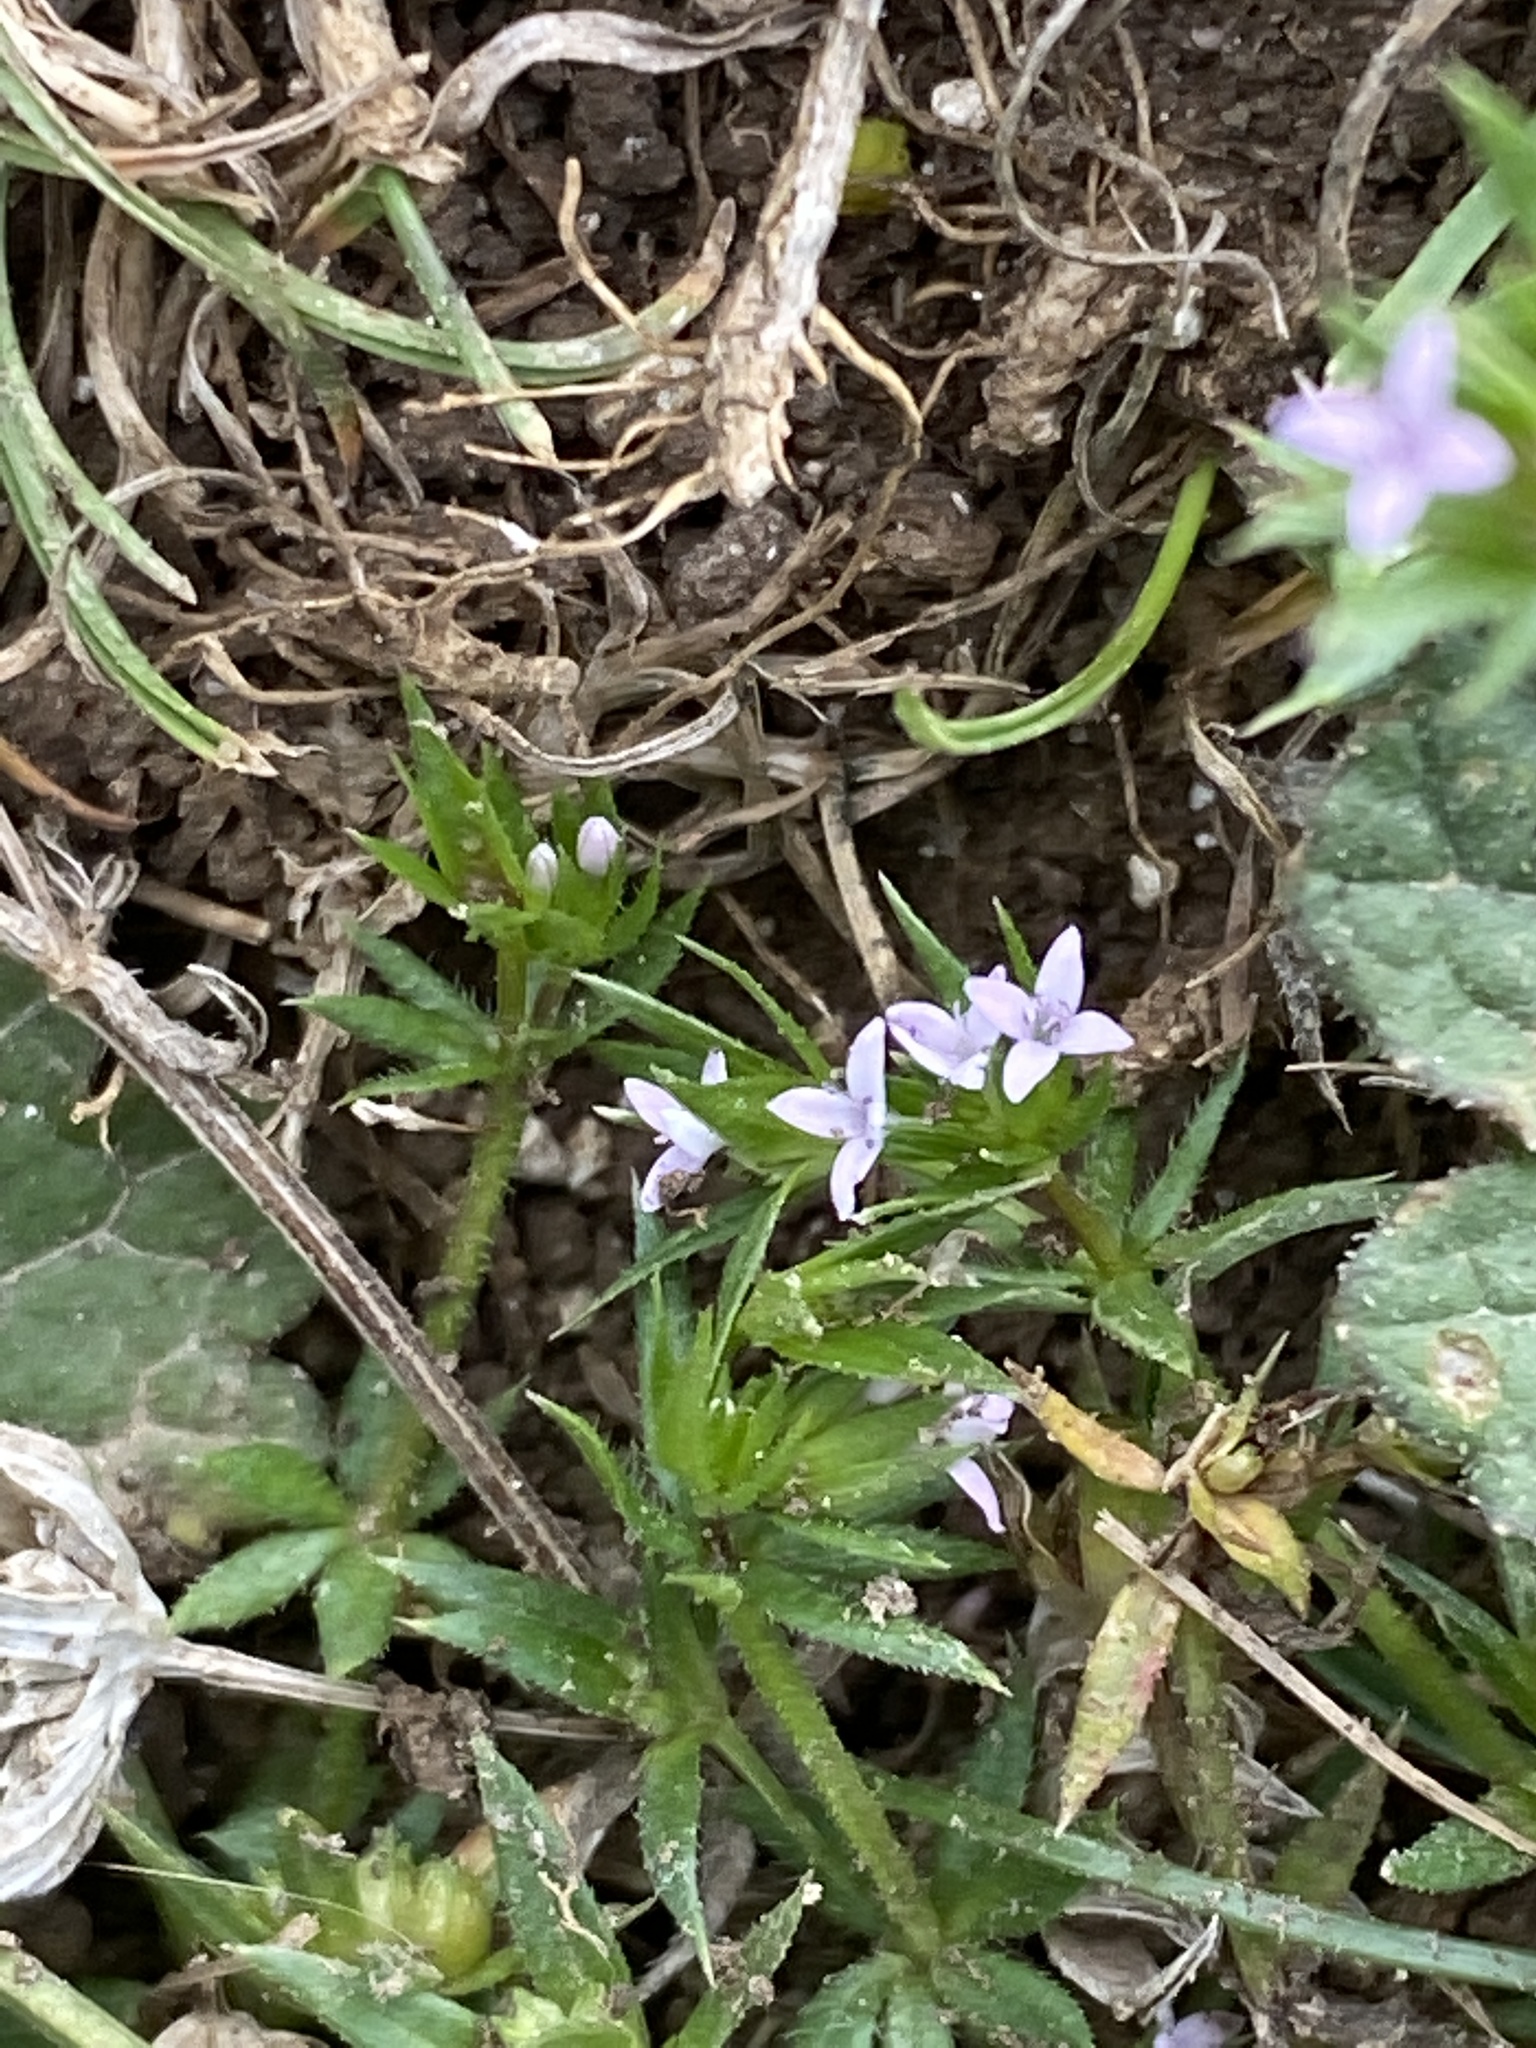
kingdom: Plantae
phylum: Tracheophyta
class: Magnoliopsida
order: Gentianales
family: Rubiaceae
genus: Sherardia
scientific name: Sherardia arvensis
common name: Field madder
